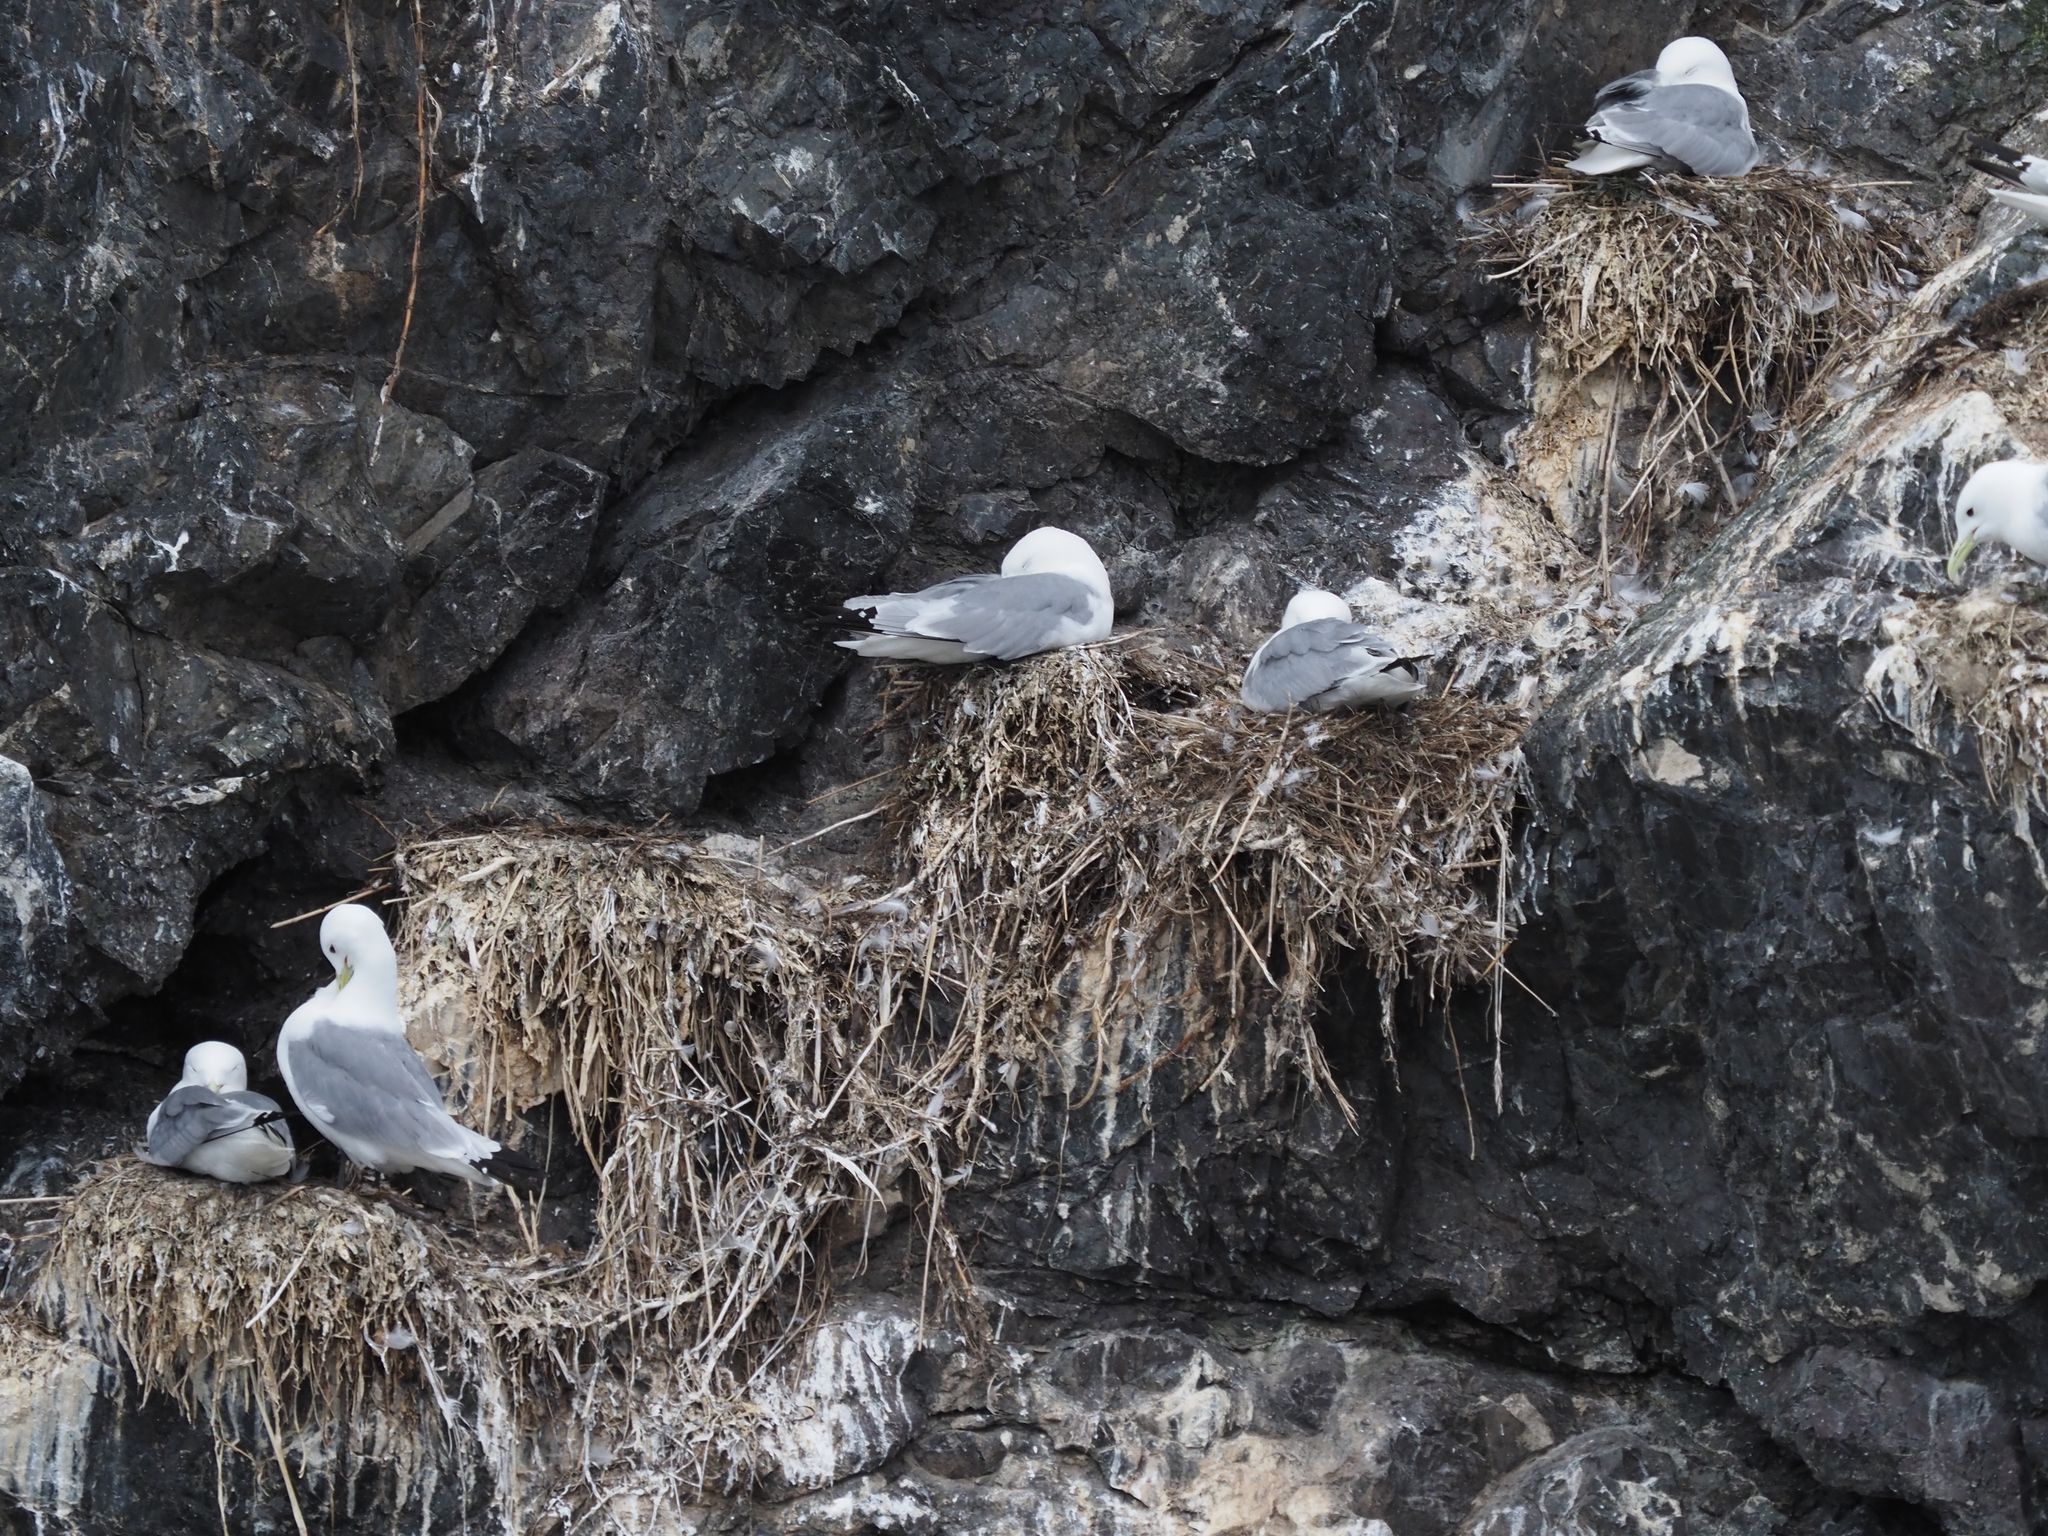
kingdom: Animalia
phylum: Chordata
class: Aves
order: Charadriiformes
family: Laridae
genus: Rissa
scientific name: Rissa tridactyla
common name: Black-legged kittiwake
